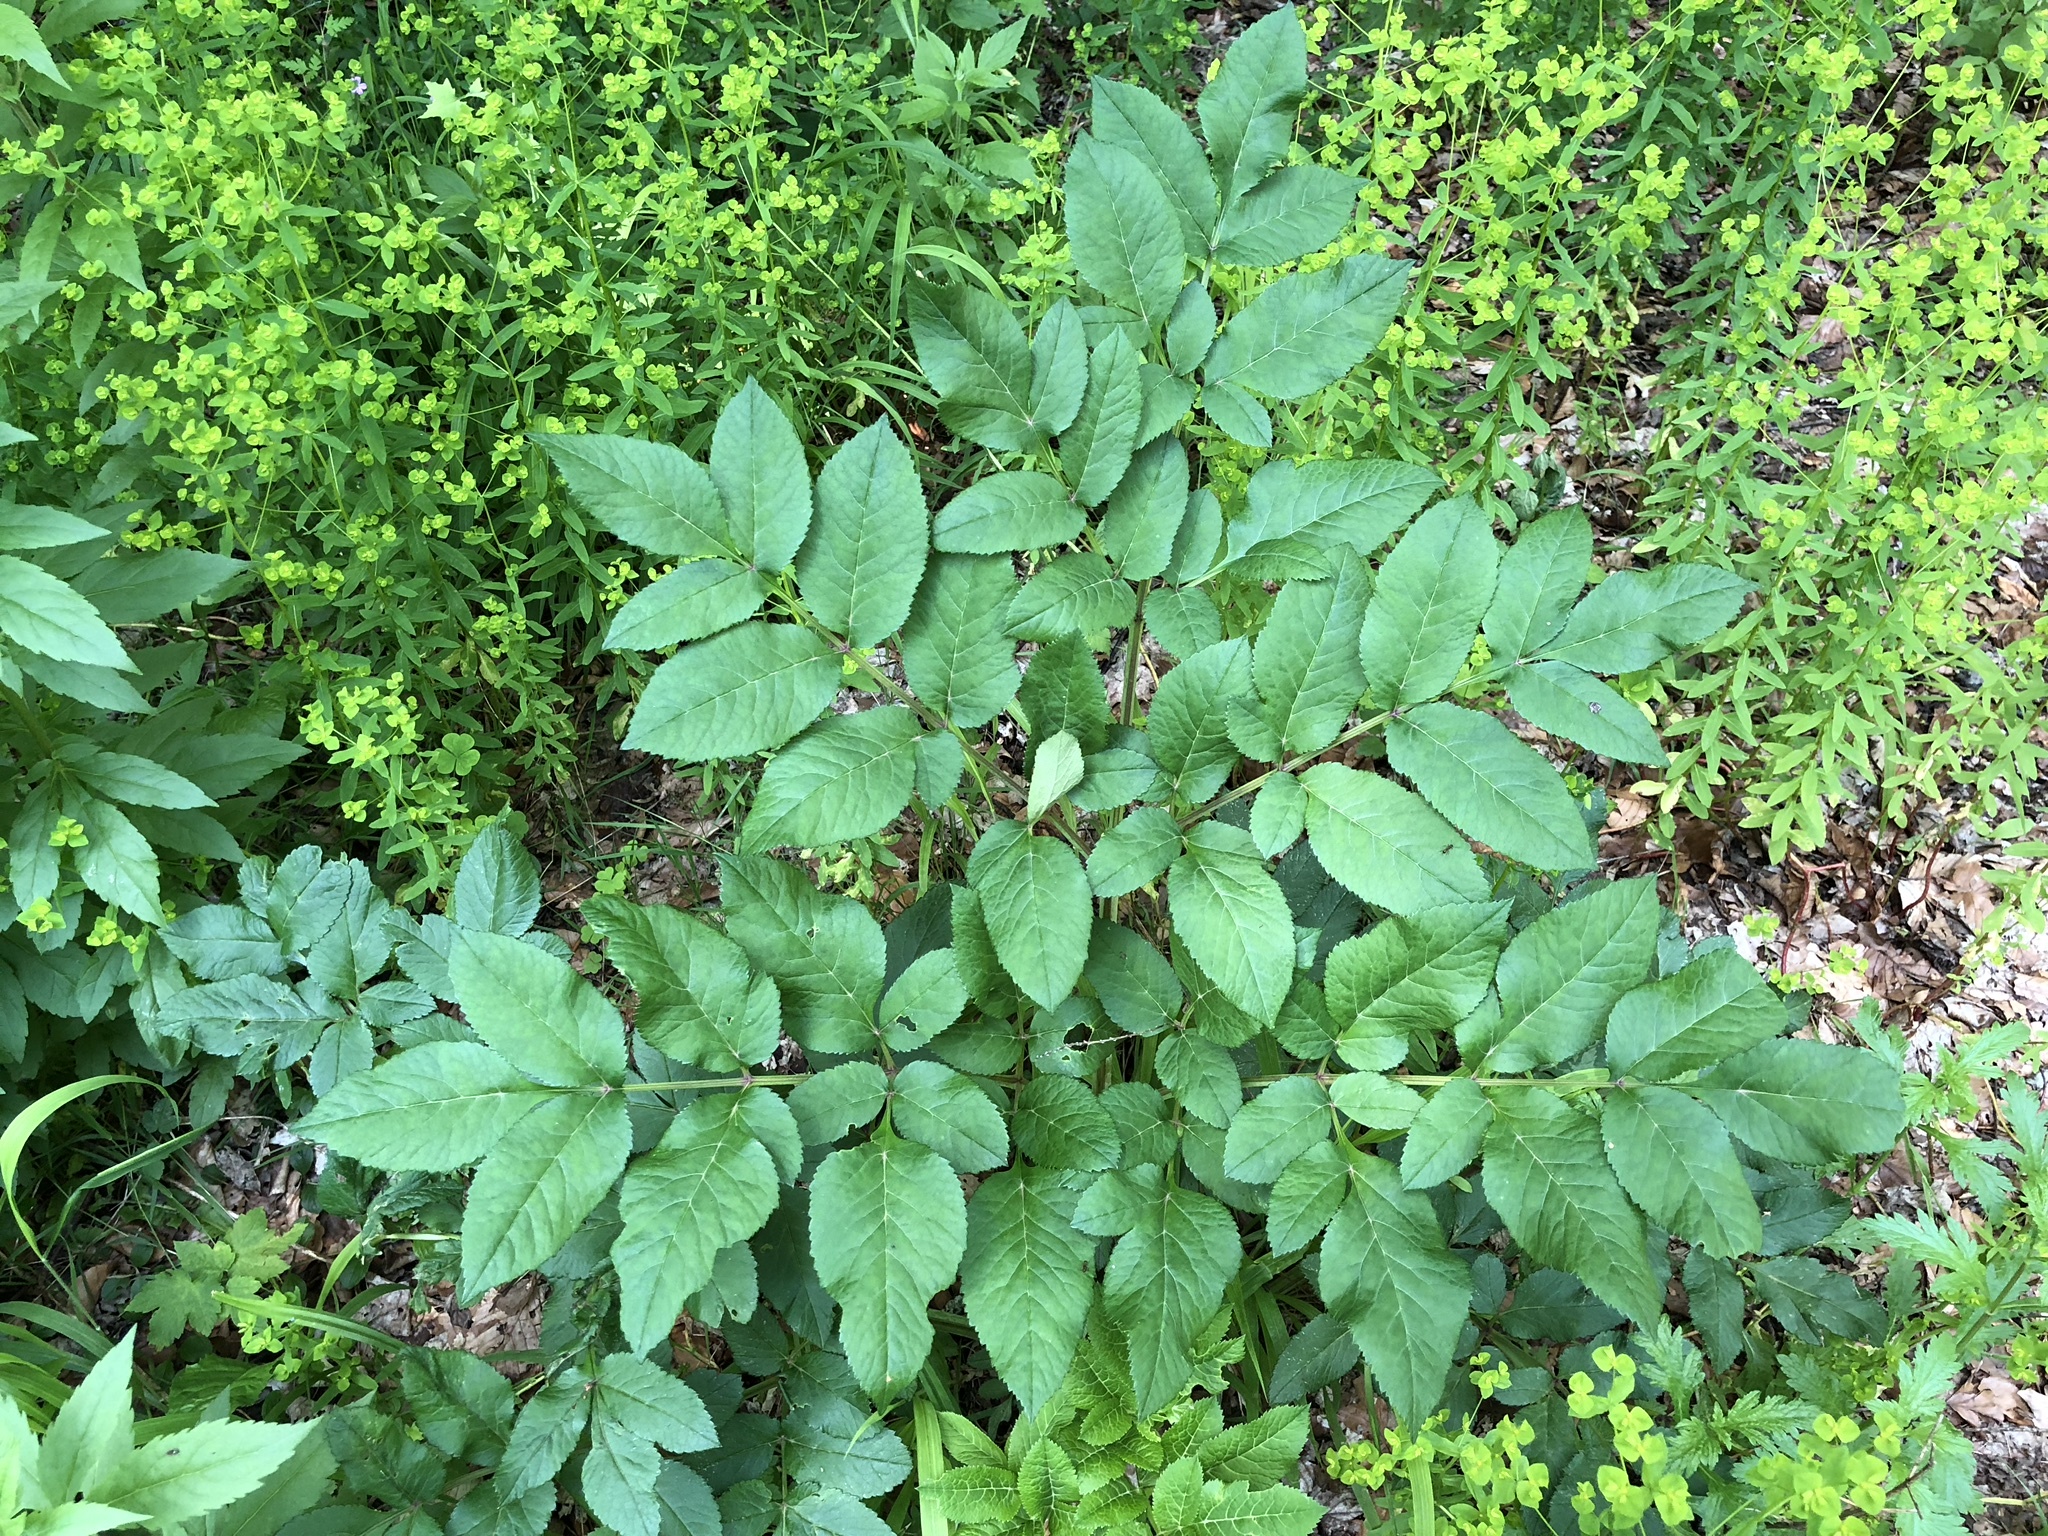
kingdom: Plantae
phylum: Tracheophyta
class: Magnoliopsida
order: Apiales
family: Apiaceae
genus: Angelica
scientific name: Angelica sylvestris
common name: Wild angelica
